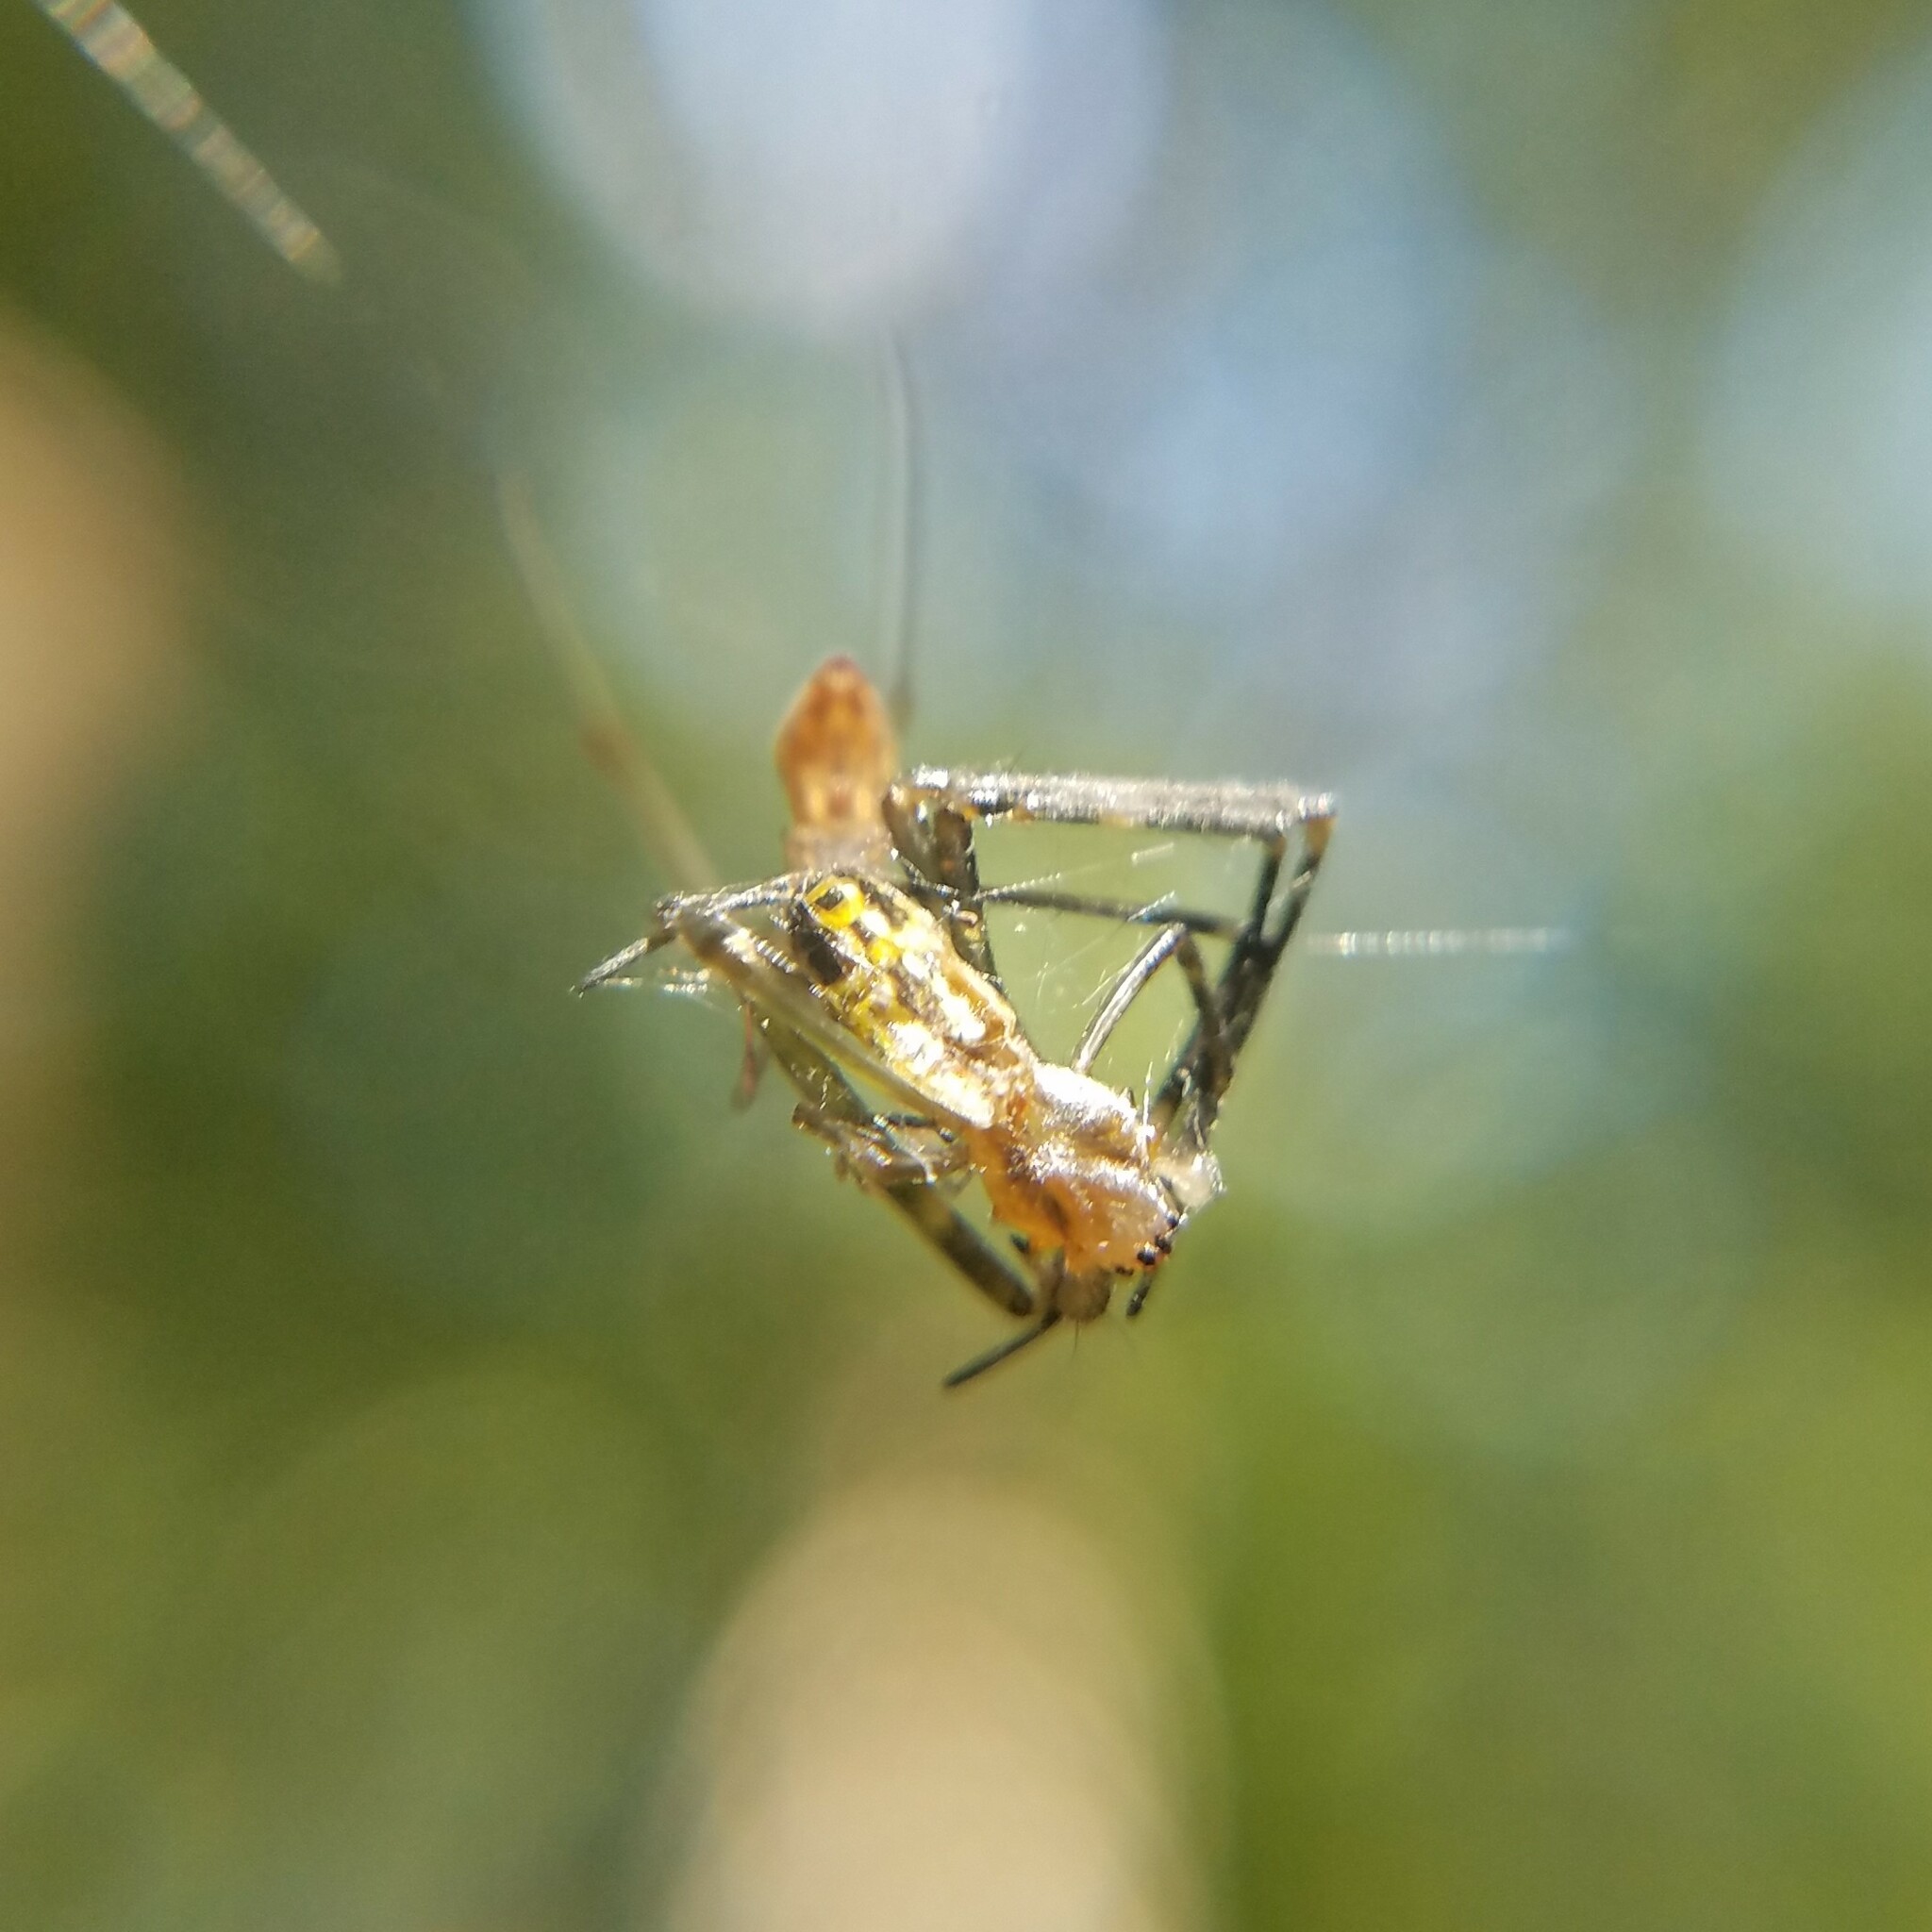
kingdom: Animalia
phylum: Arthropoda
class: Arachnida
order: Araneae
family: Araneidae
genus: Trichonephila
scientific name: Trichonephila clavata
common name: Jorō spider
